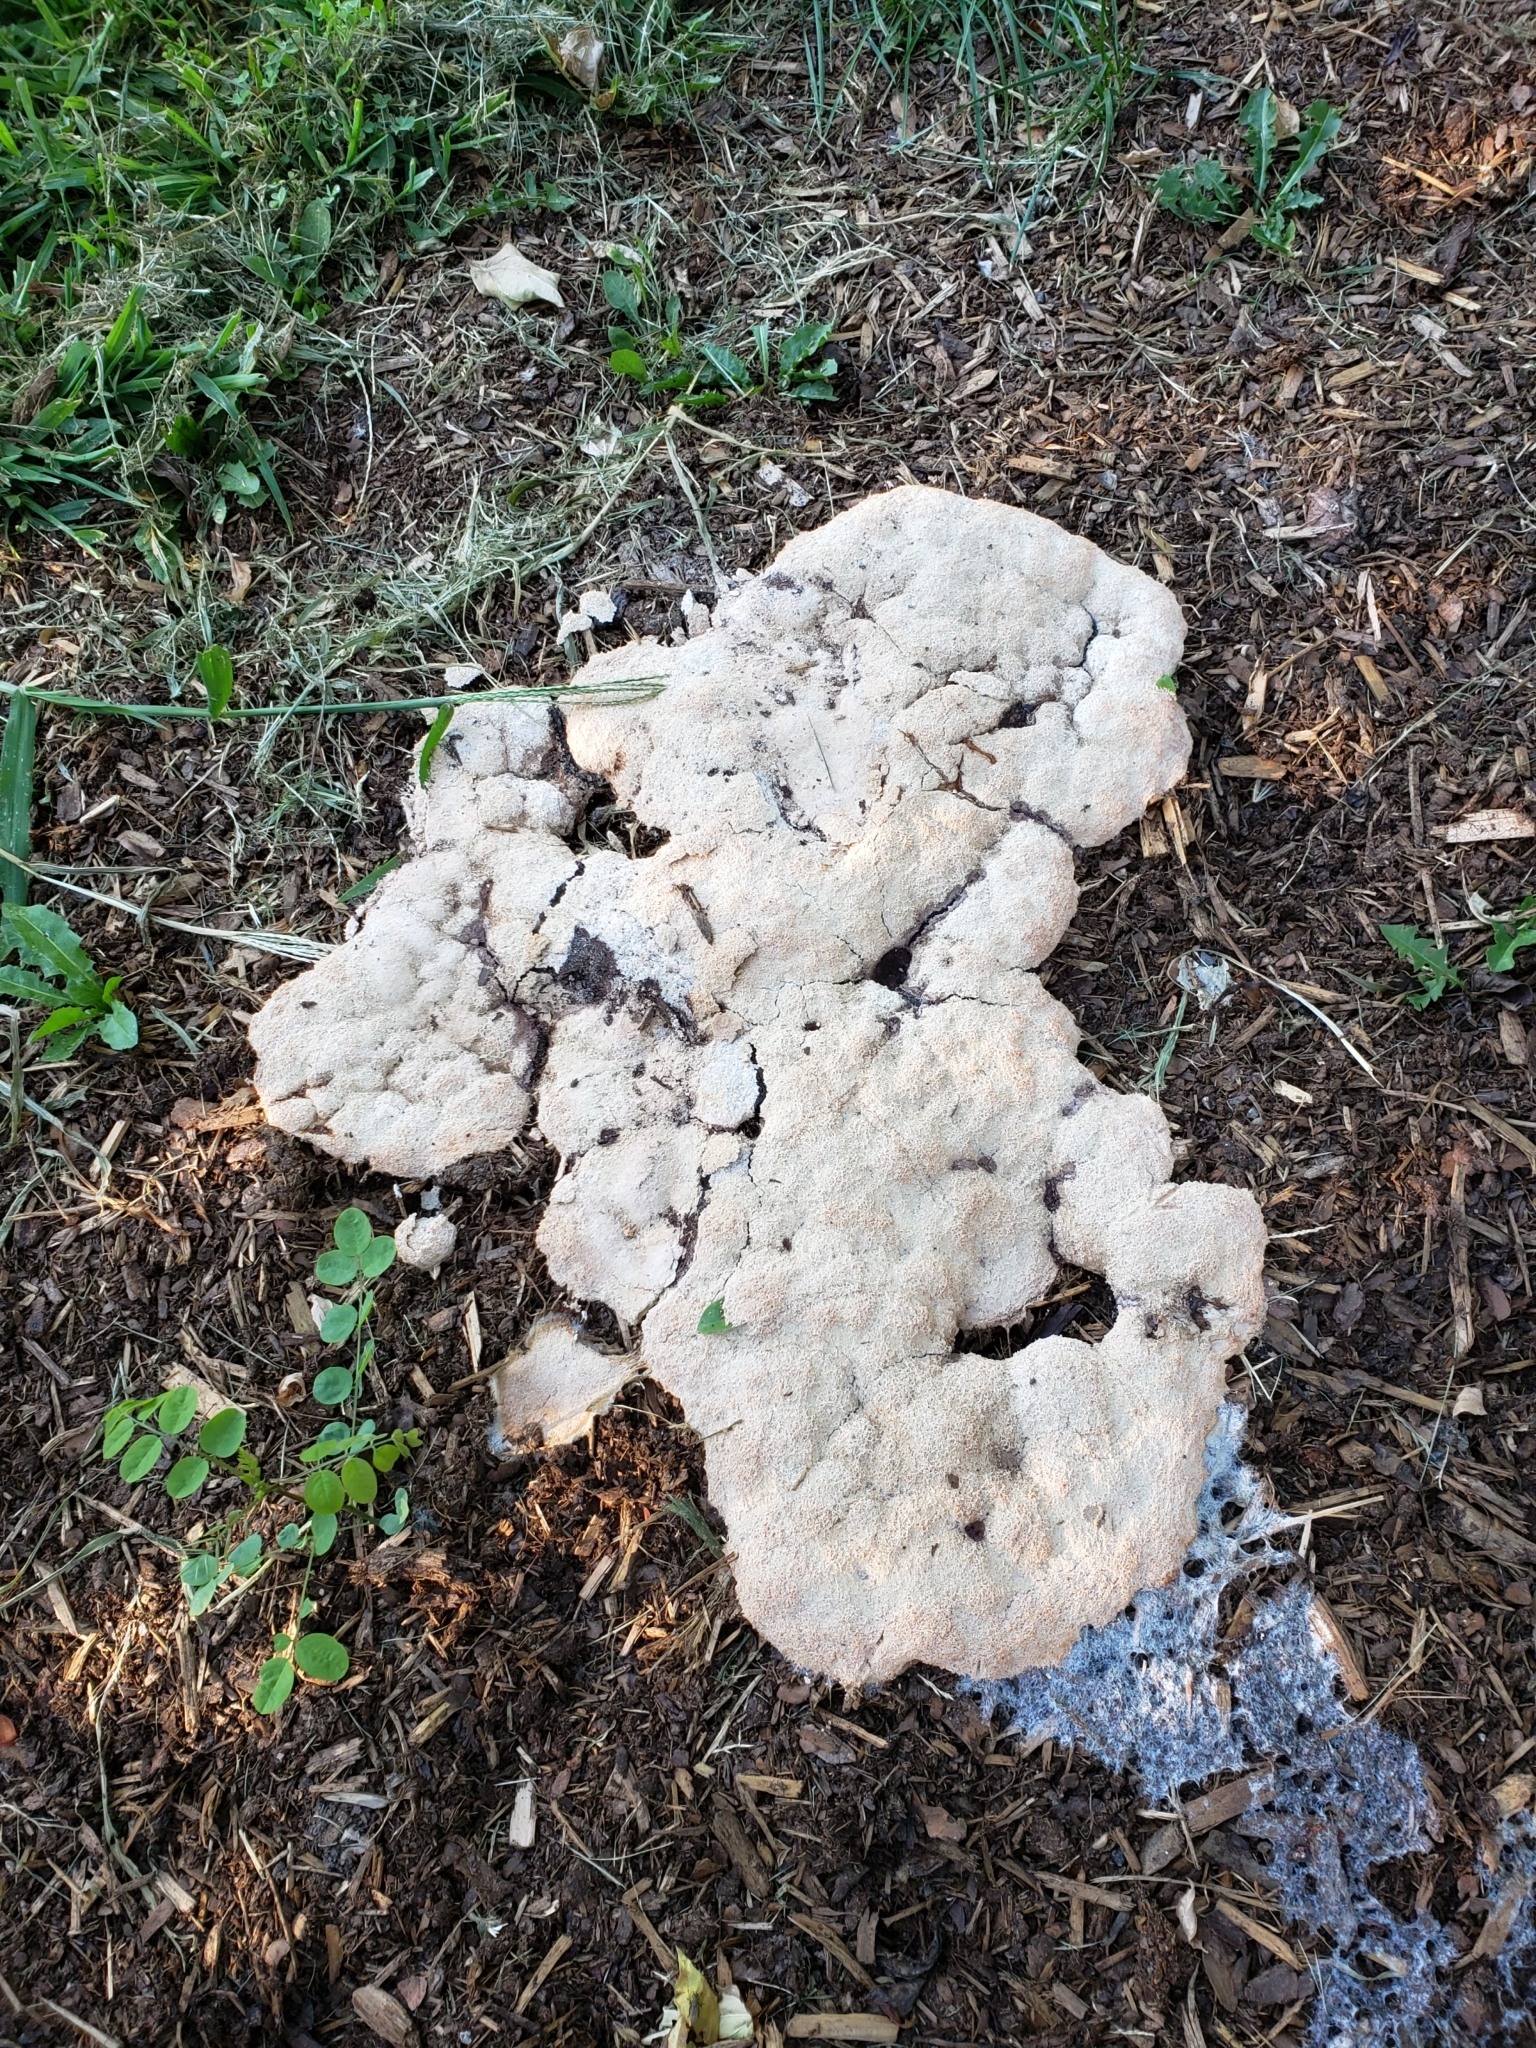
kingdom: Protozoa
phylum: Mycetozoa
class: Myxomycetes
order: Physarales
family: Physaraceae
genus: Fuligo
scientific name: Fuligo septica
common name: Dog vomit slime mold
